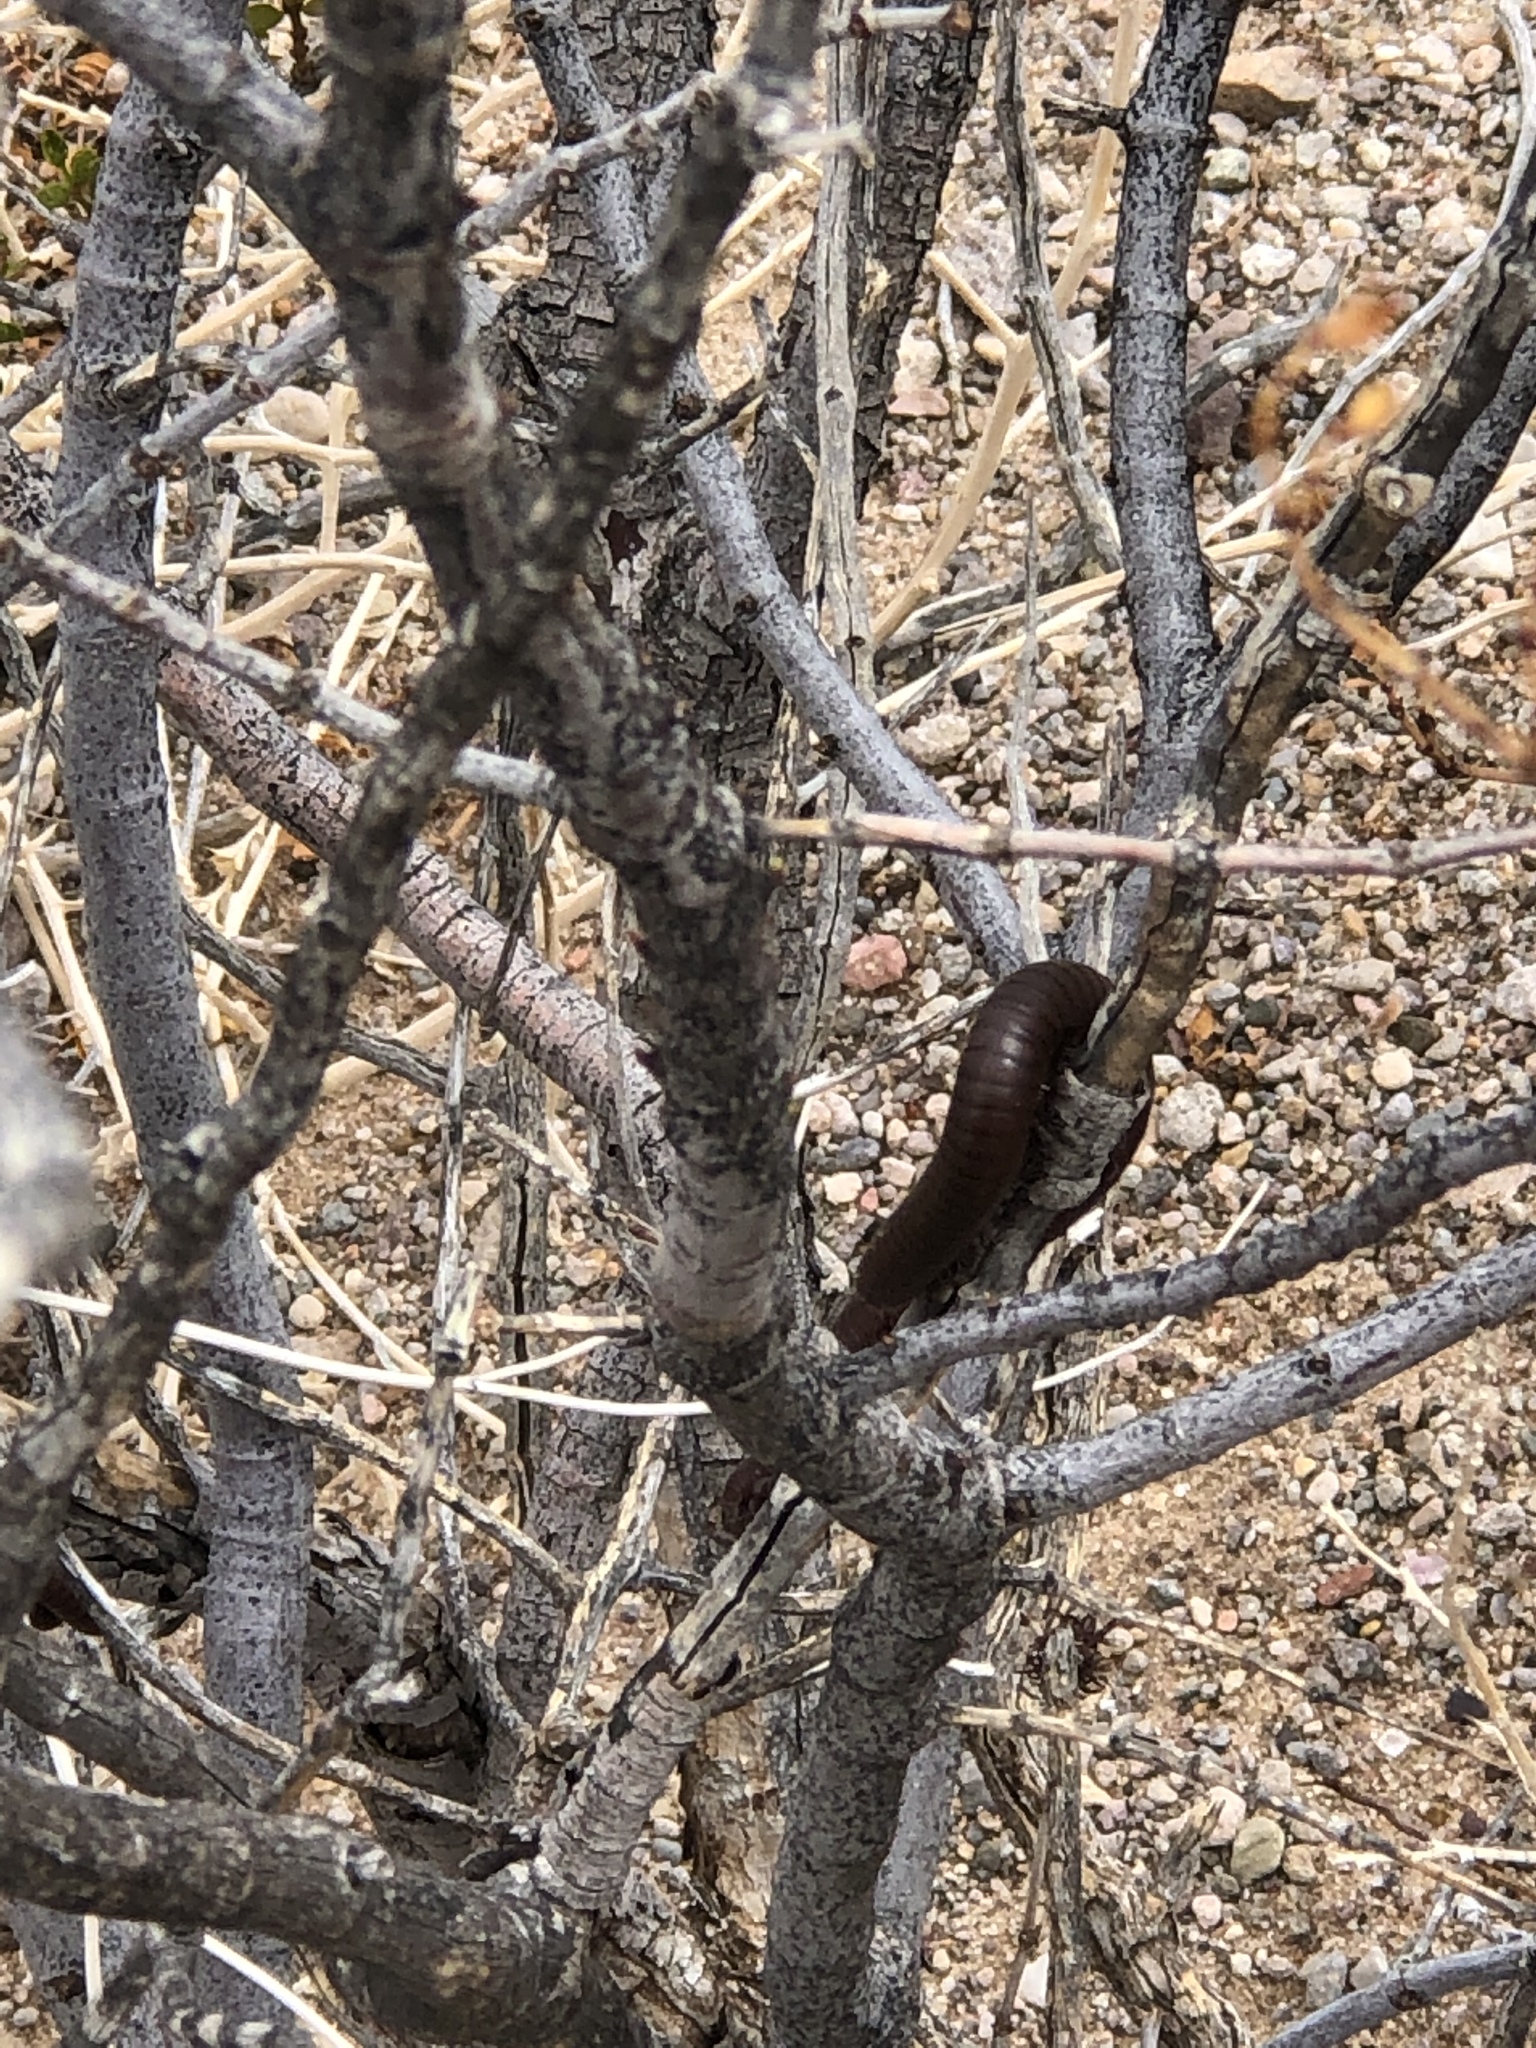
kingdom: Animalia
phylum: Arthropoda
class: Diplopoda
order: Spirostreptida
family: Spirostreptidae
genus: Orthoporus
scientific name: Orthoporus ornatus
